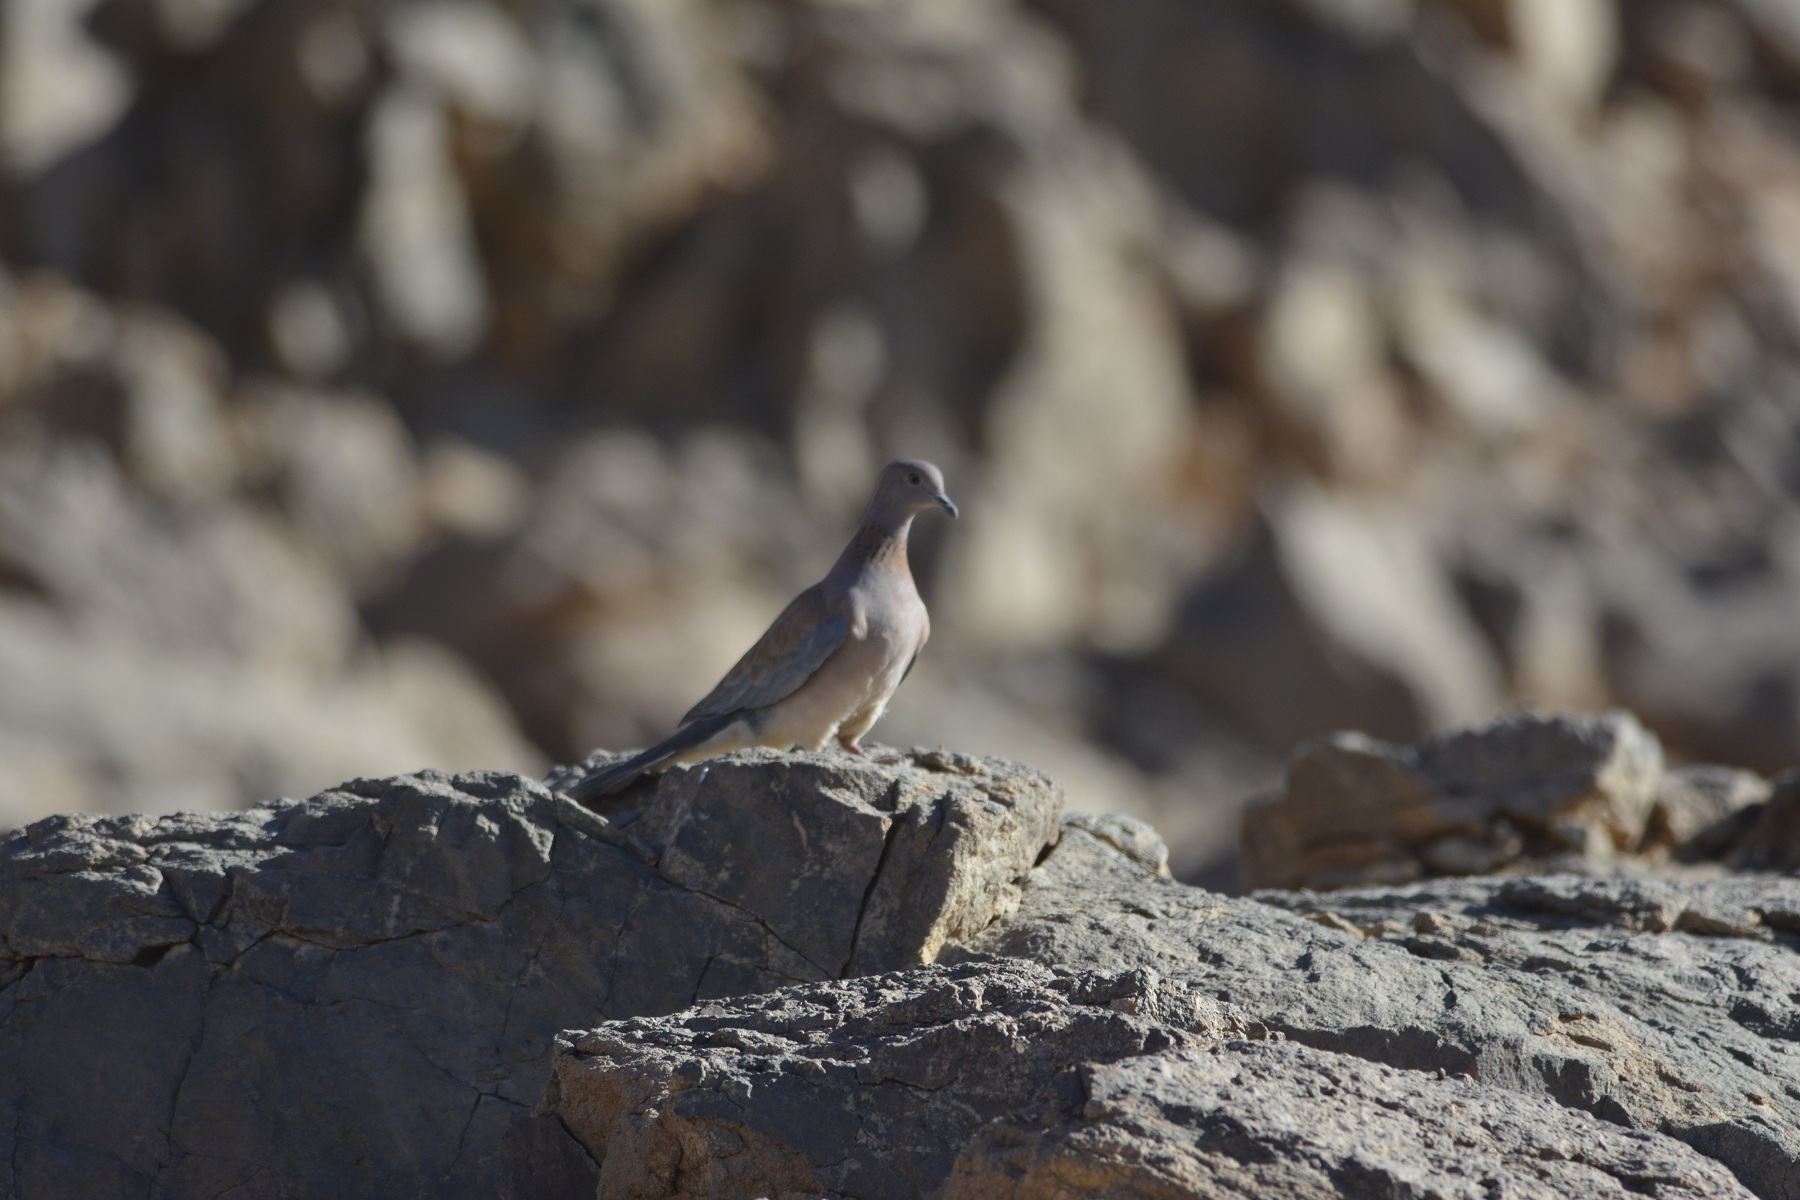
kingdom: Animalia
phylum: Chordata
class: Aves
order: Columbiformes
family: Columbidae
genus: Spilopelia
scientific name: Spilopelia senegalensis
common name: Laughing dove
